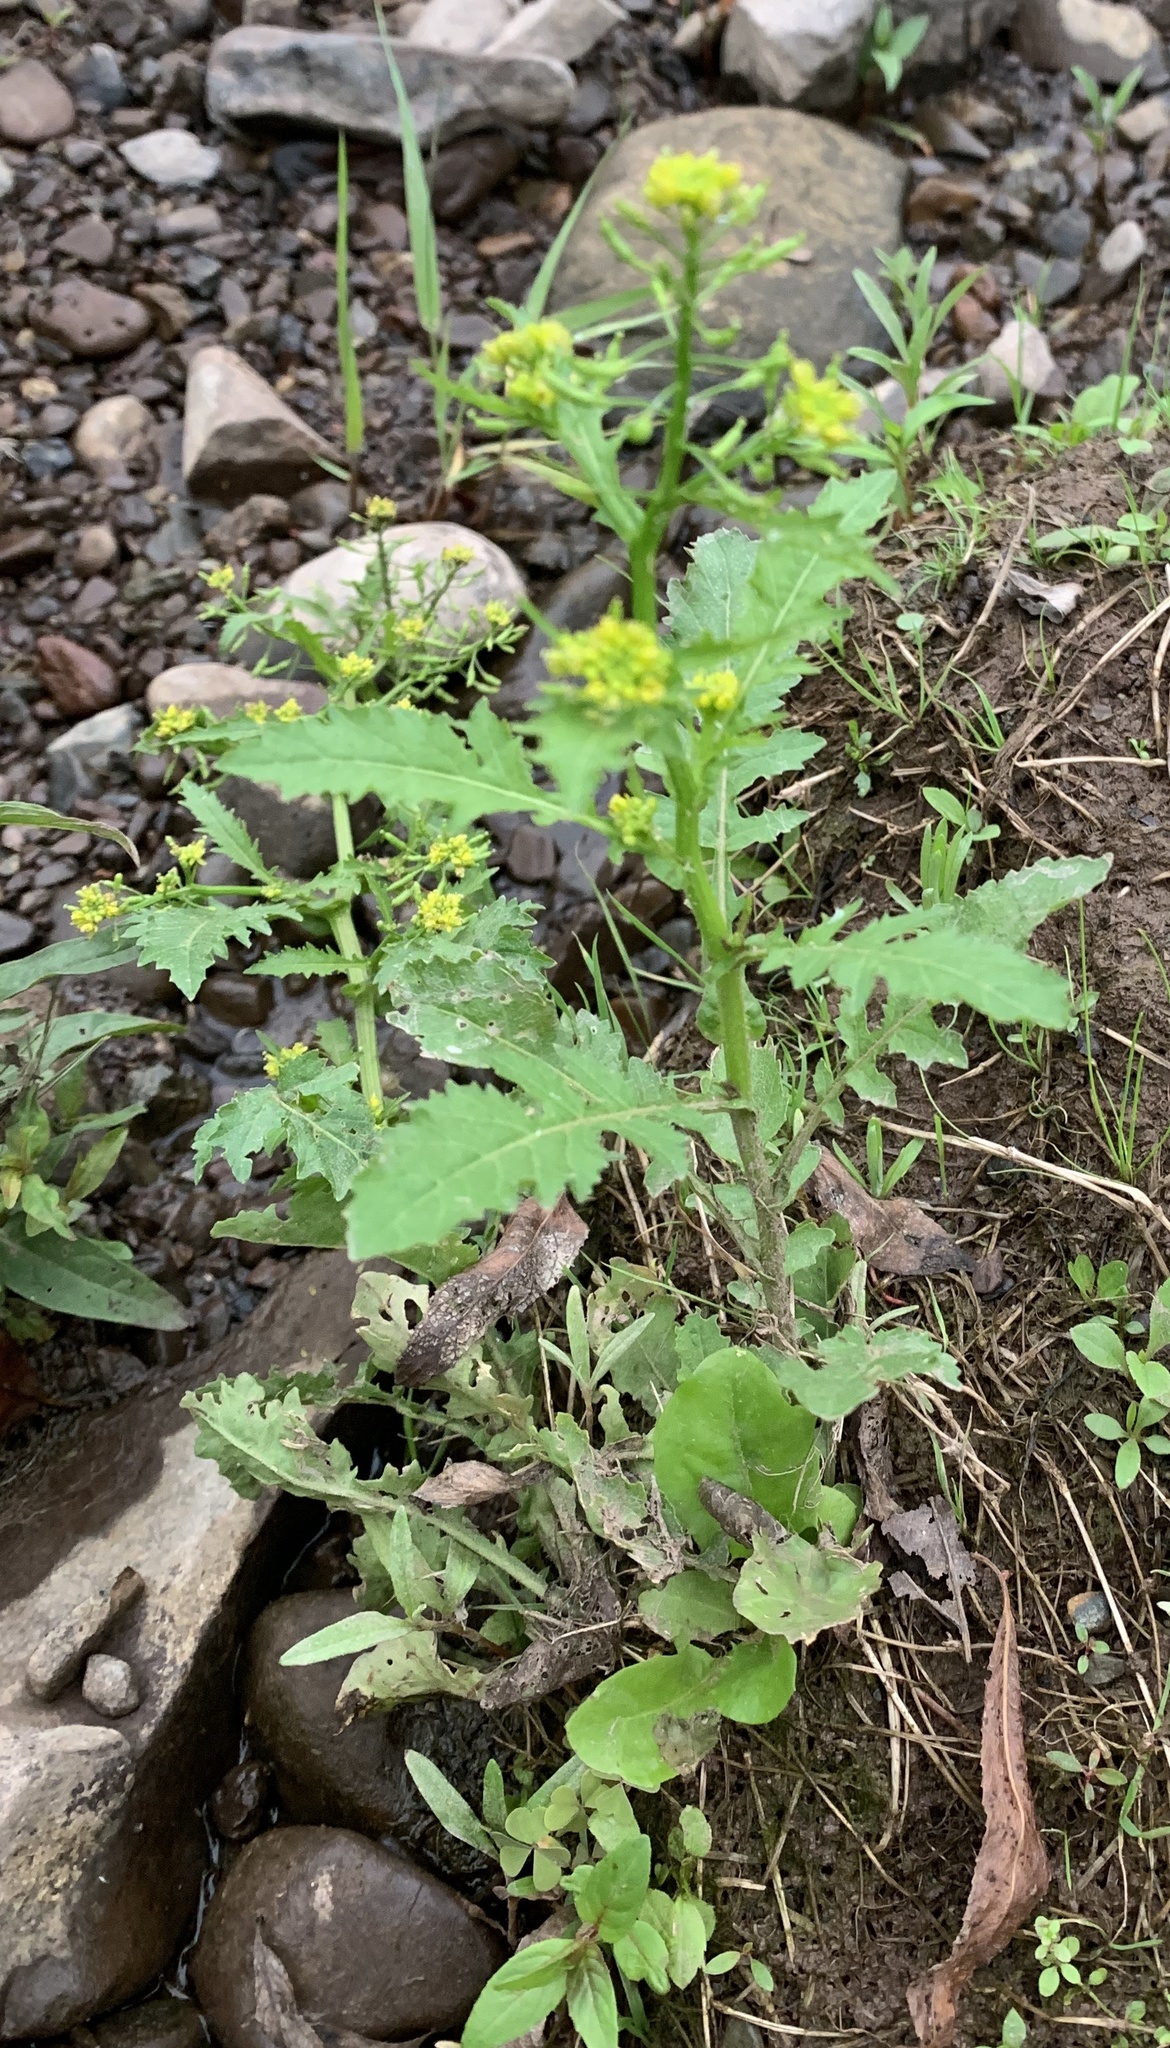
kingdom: Plantae
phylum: Tracheophyta
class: Magnoliopsida
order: Brassicales
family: Brassicaceae
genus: Rorippa
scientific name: Rorippa palustris
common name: Marsh yellow-cress
